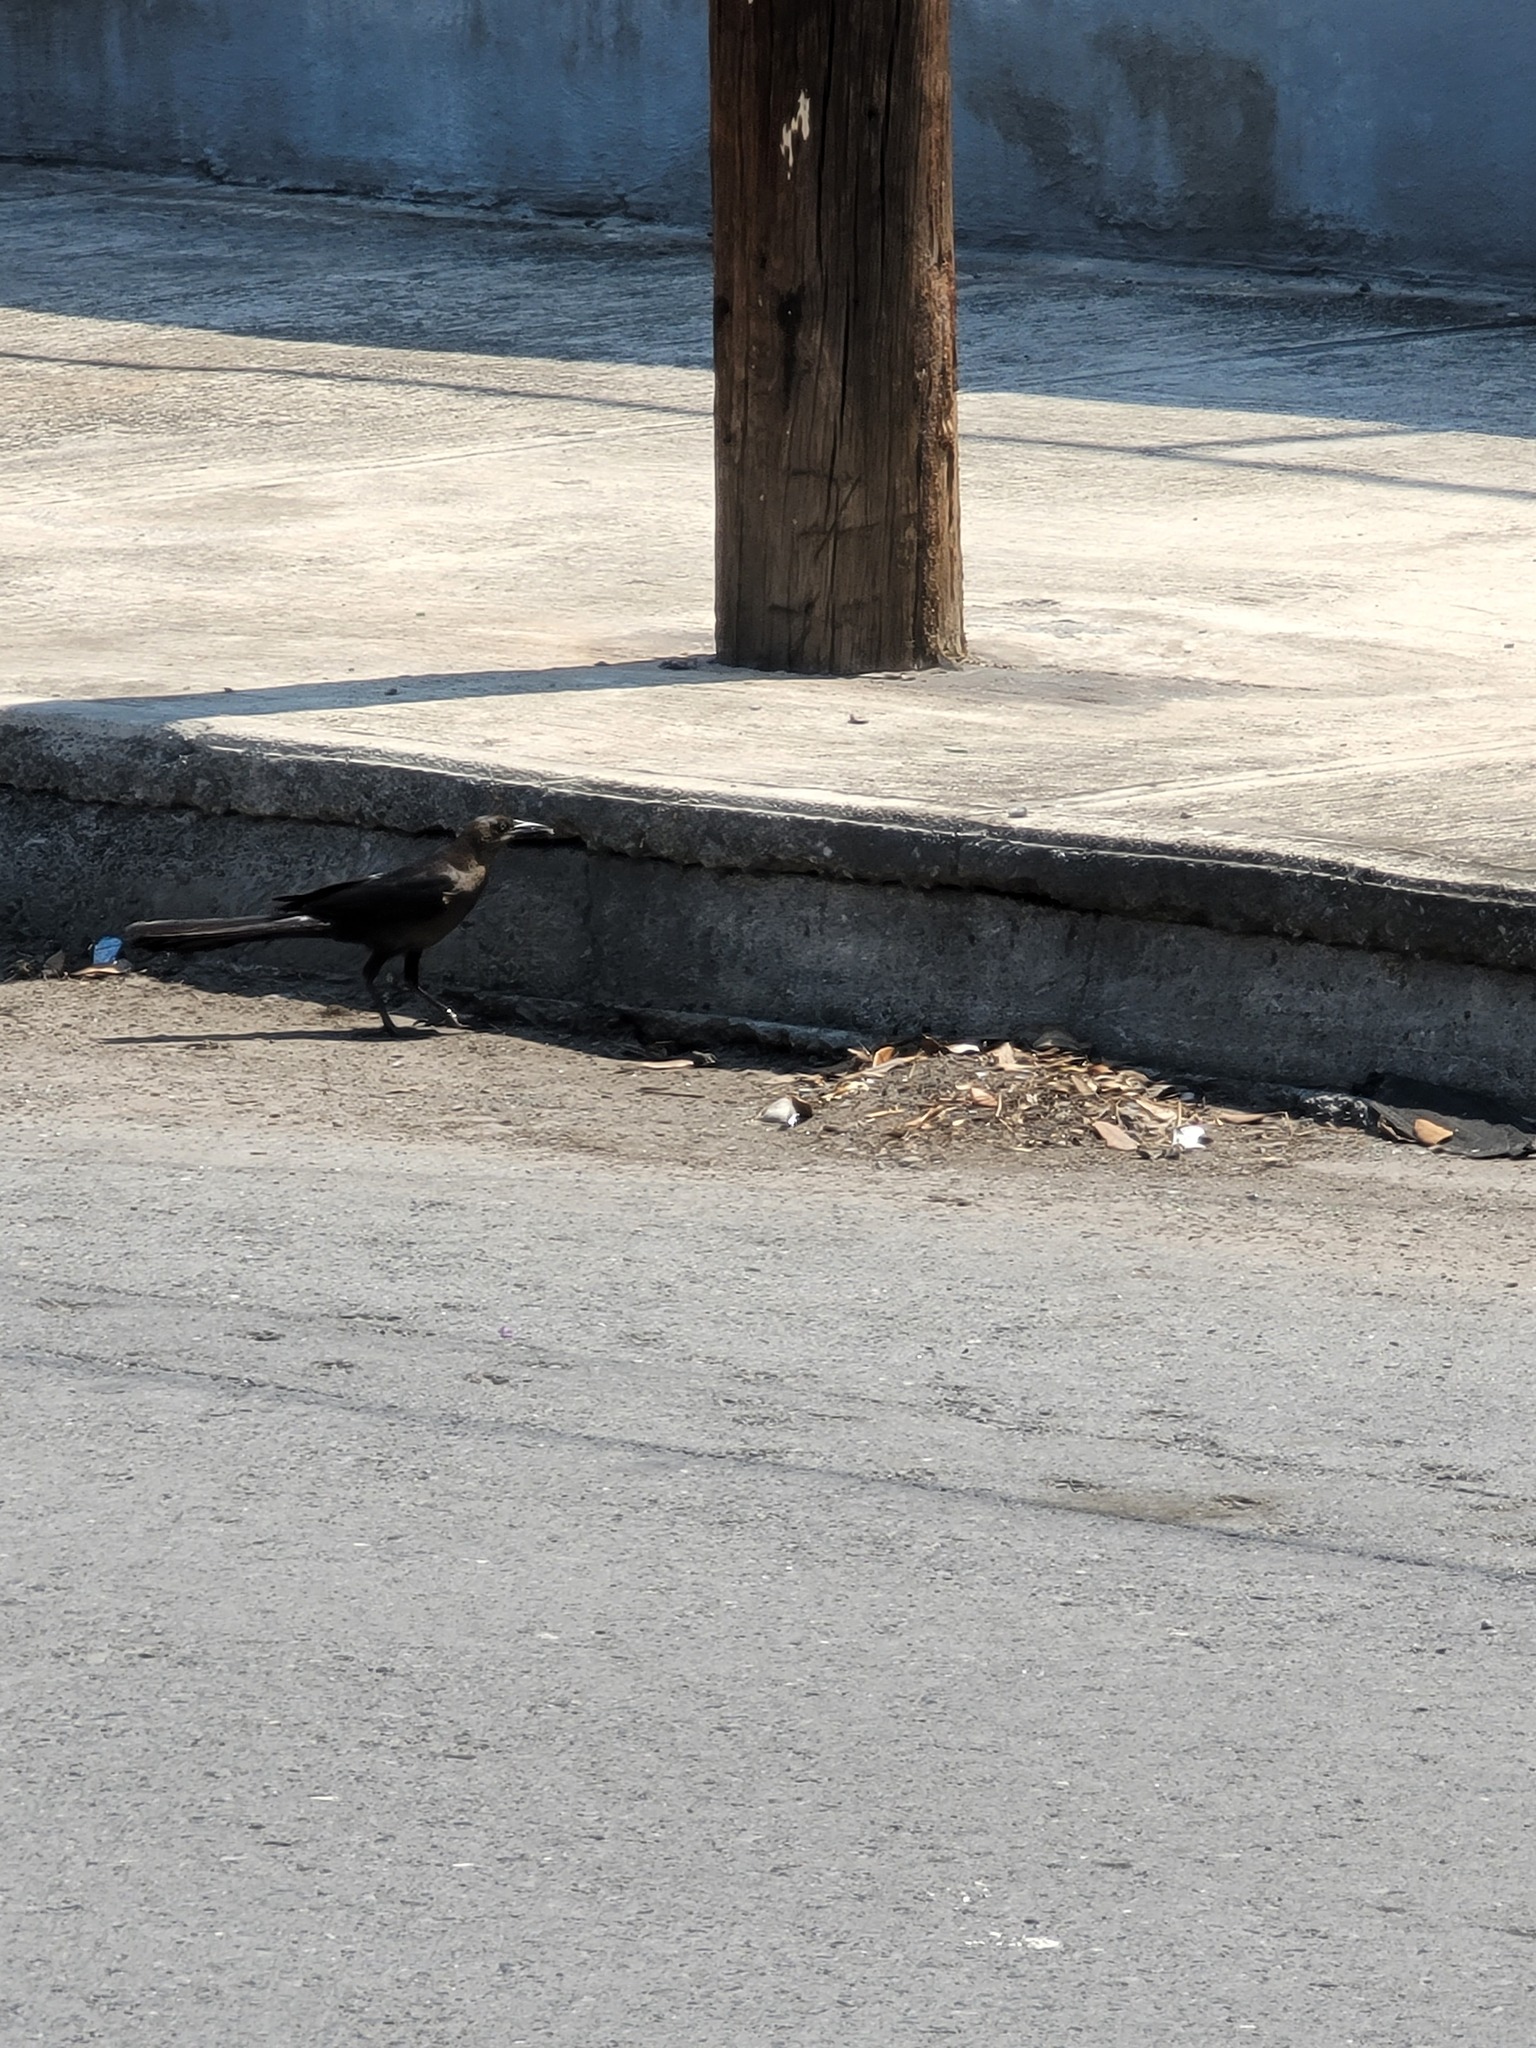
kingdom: Animalia
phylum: Chordata
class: Aves
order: Passeriformes
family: Icteridae
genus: Quiscalus
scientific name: Quiscalus mexicanus
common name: Great-tailed grackle
